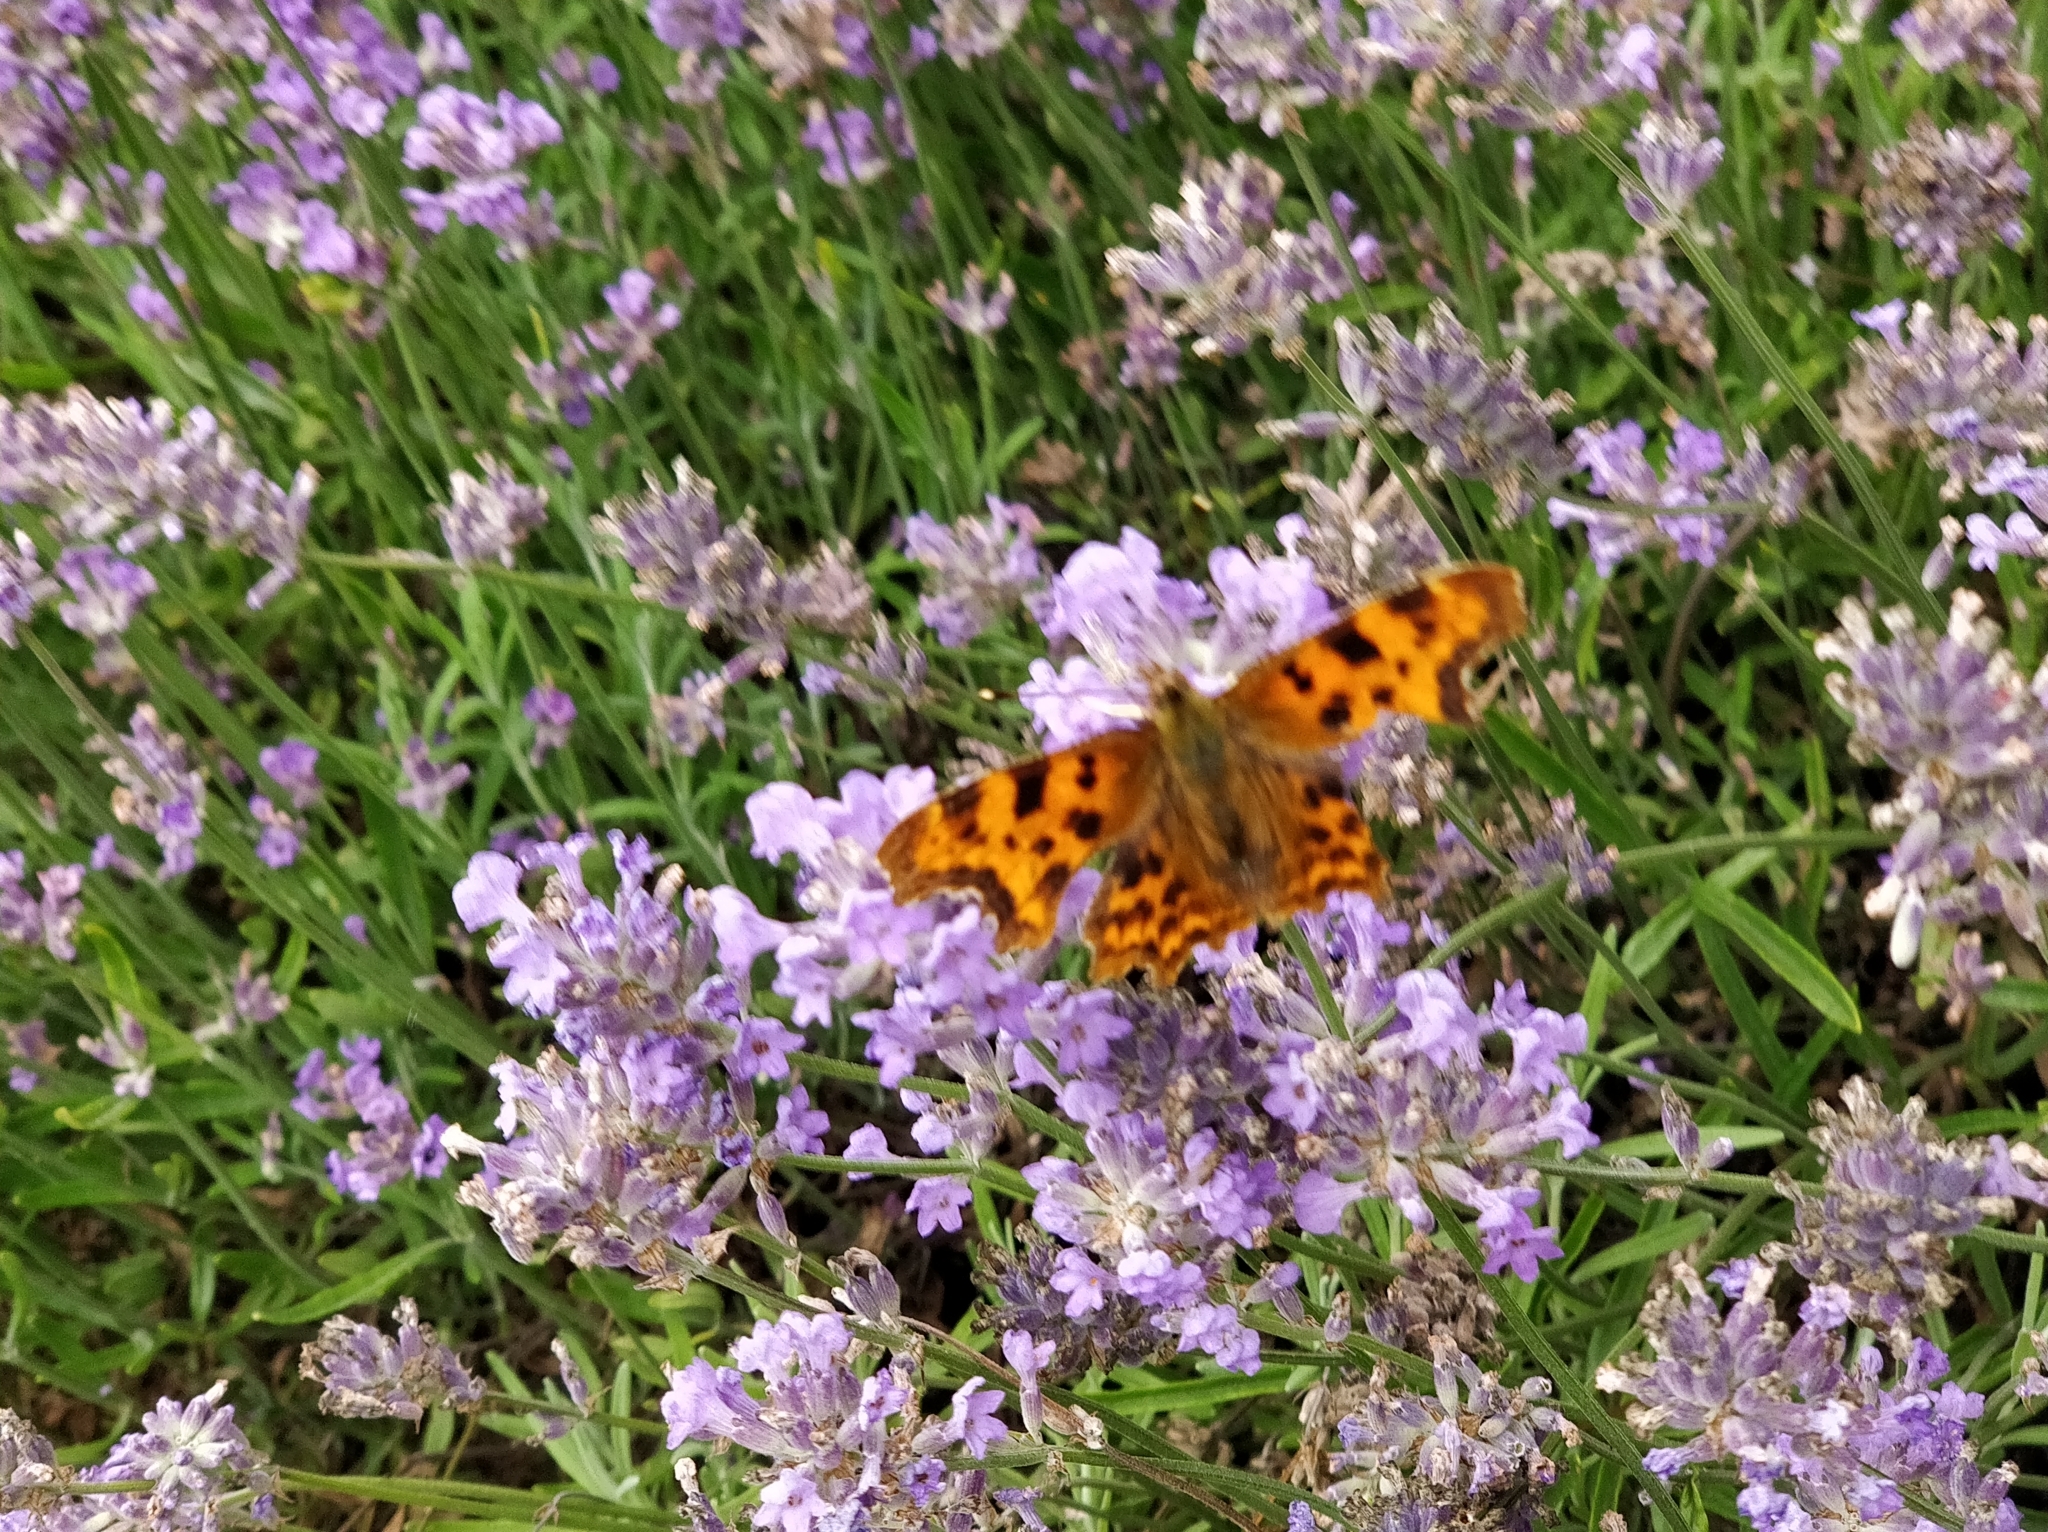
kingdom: Animalia
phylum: Arthropoda
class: Insecta
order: Lepidoptera
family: Nymphalidae
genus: Polygonia
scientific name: Polygonia c-album
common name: Comma
